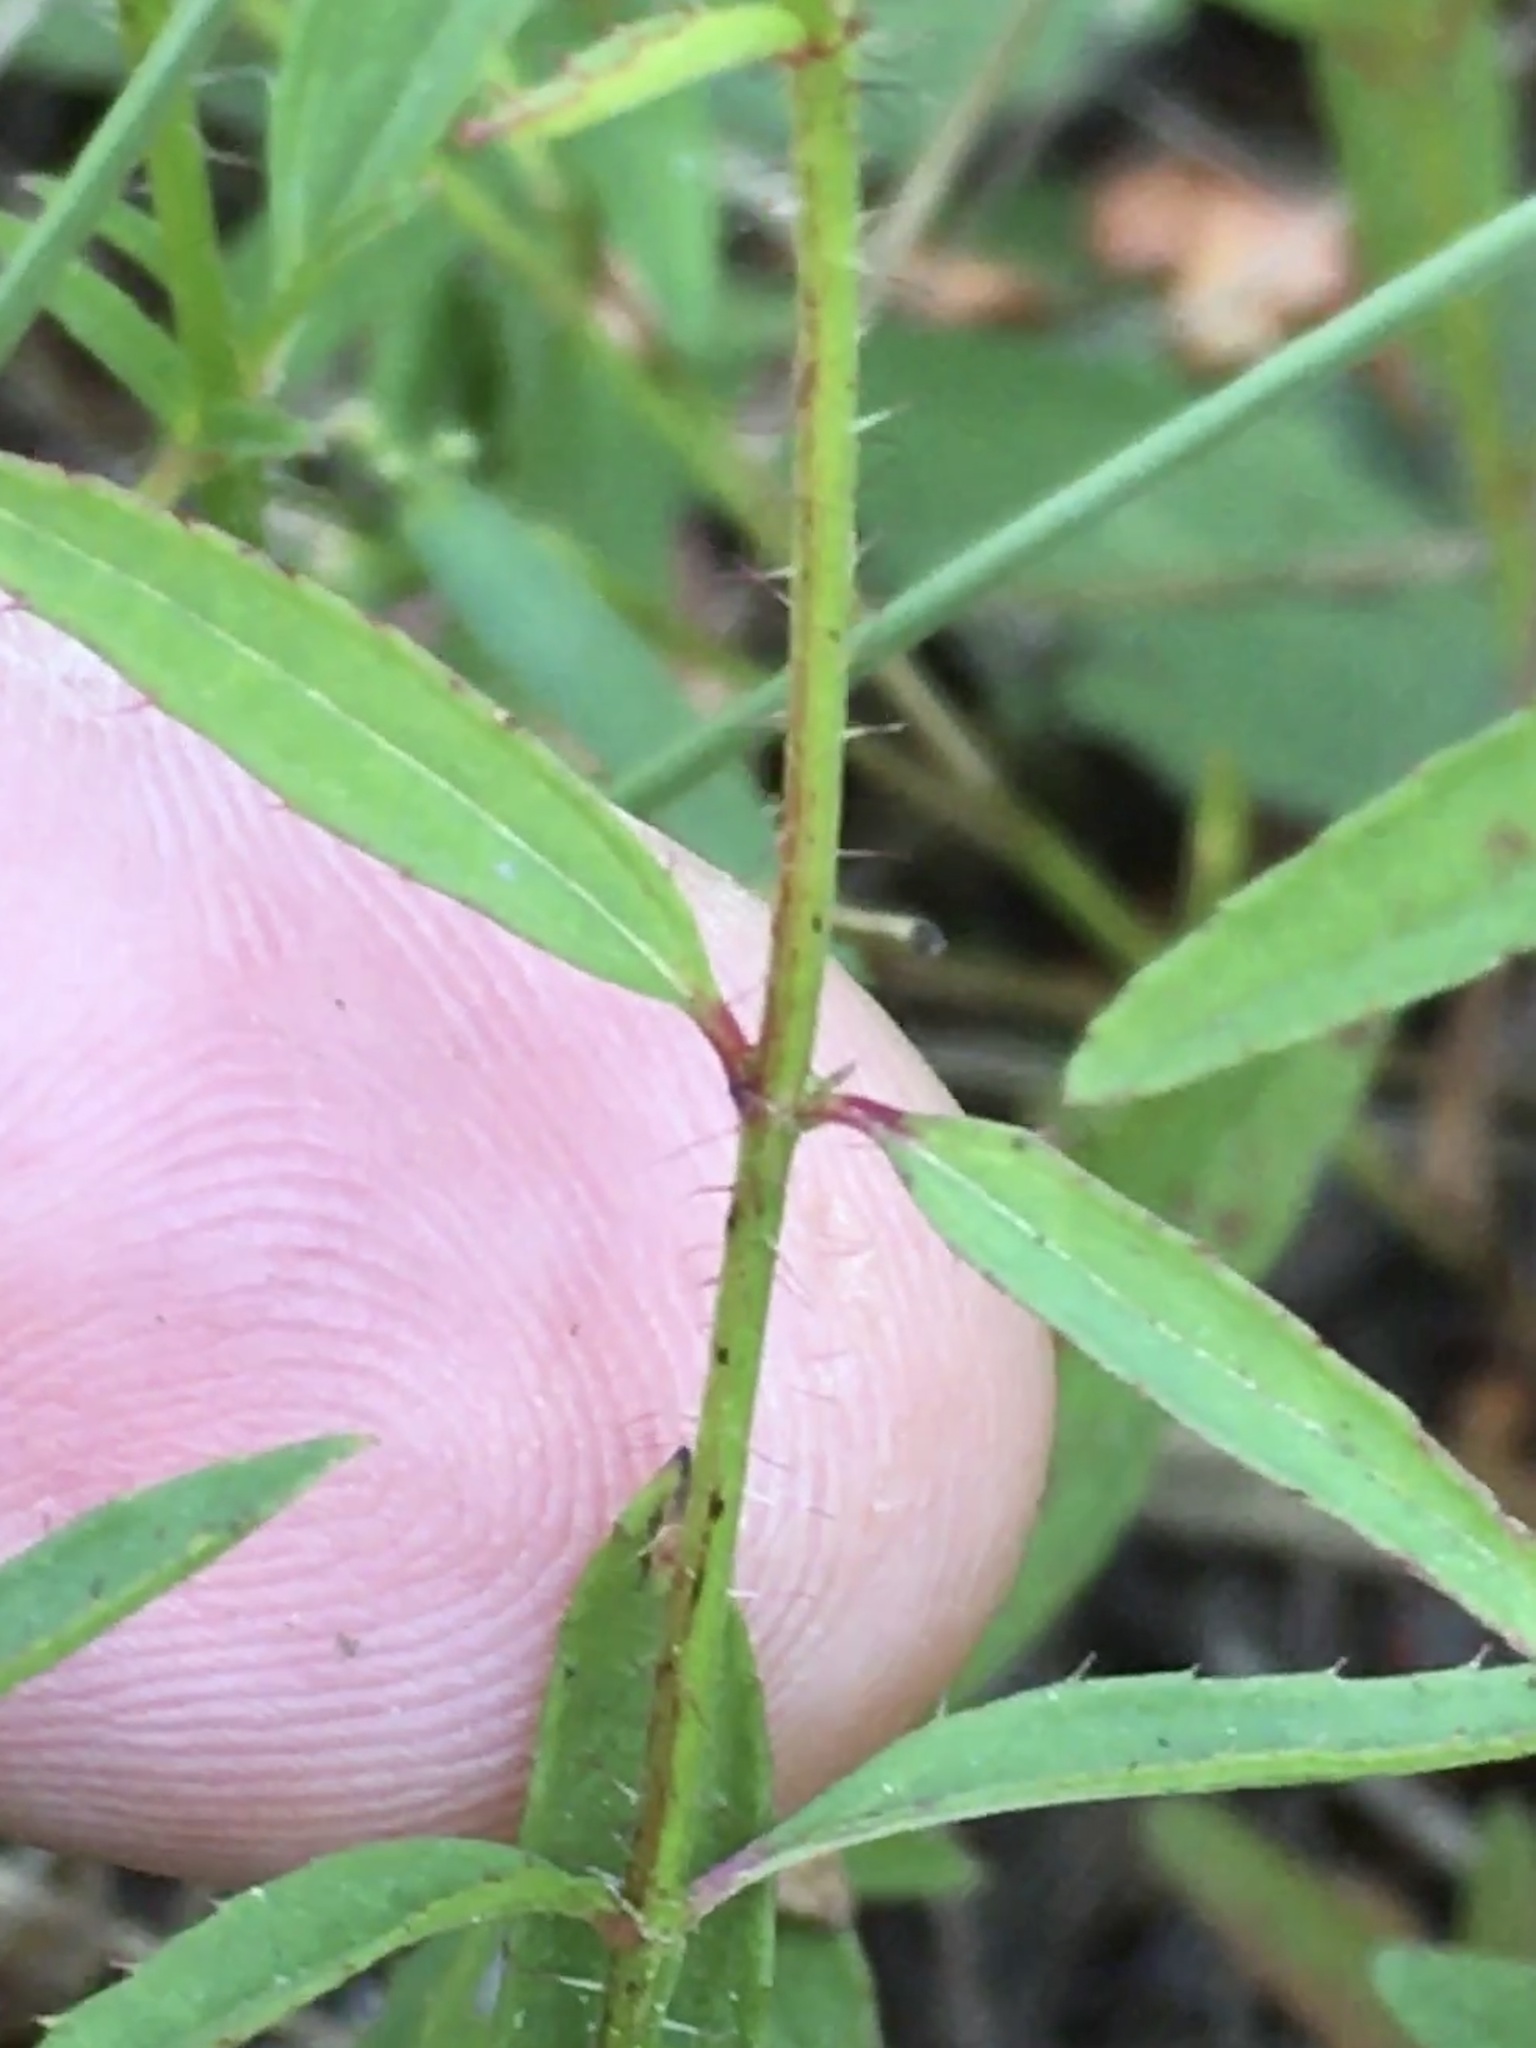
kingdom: Plantae
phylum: Tracheophyta
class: Magnoliopsida
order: Myrtales
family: Melastomataceae
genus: Rhexia
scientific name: Rhexia mariana
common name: Dull meadow-pitcher
